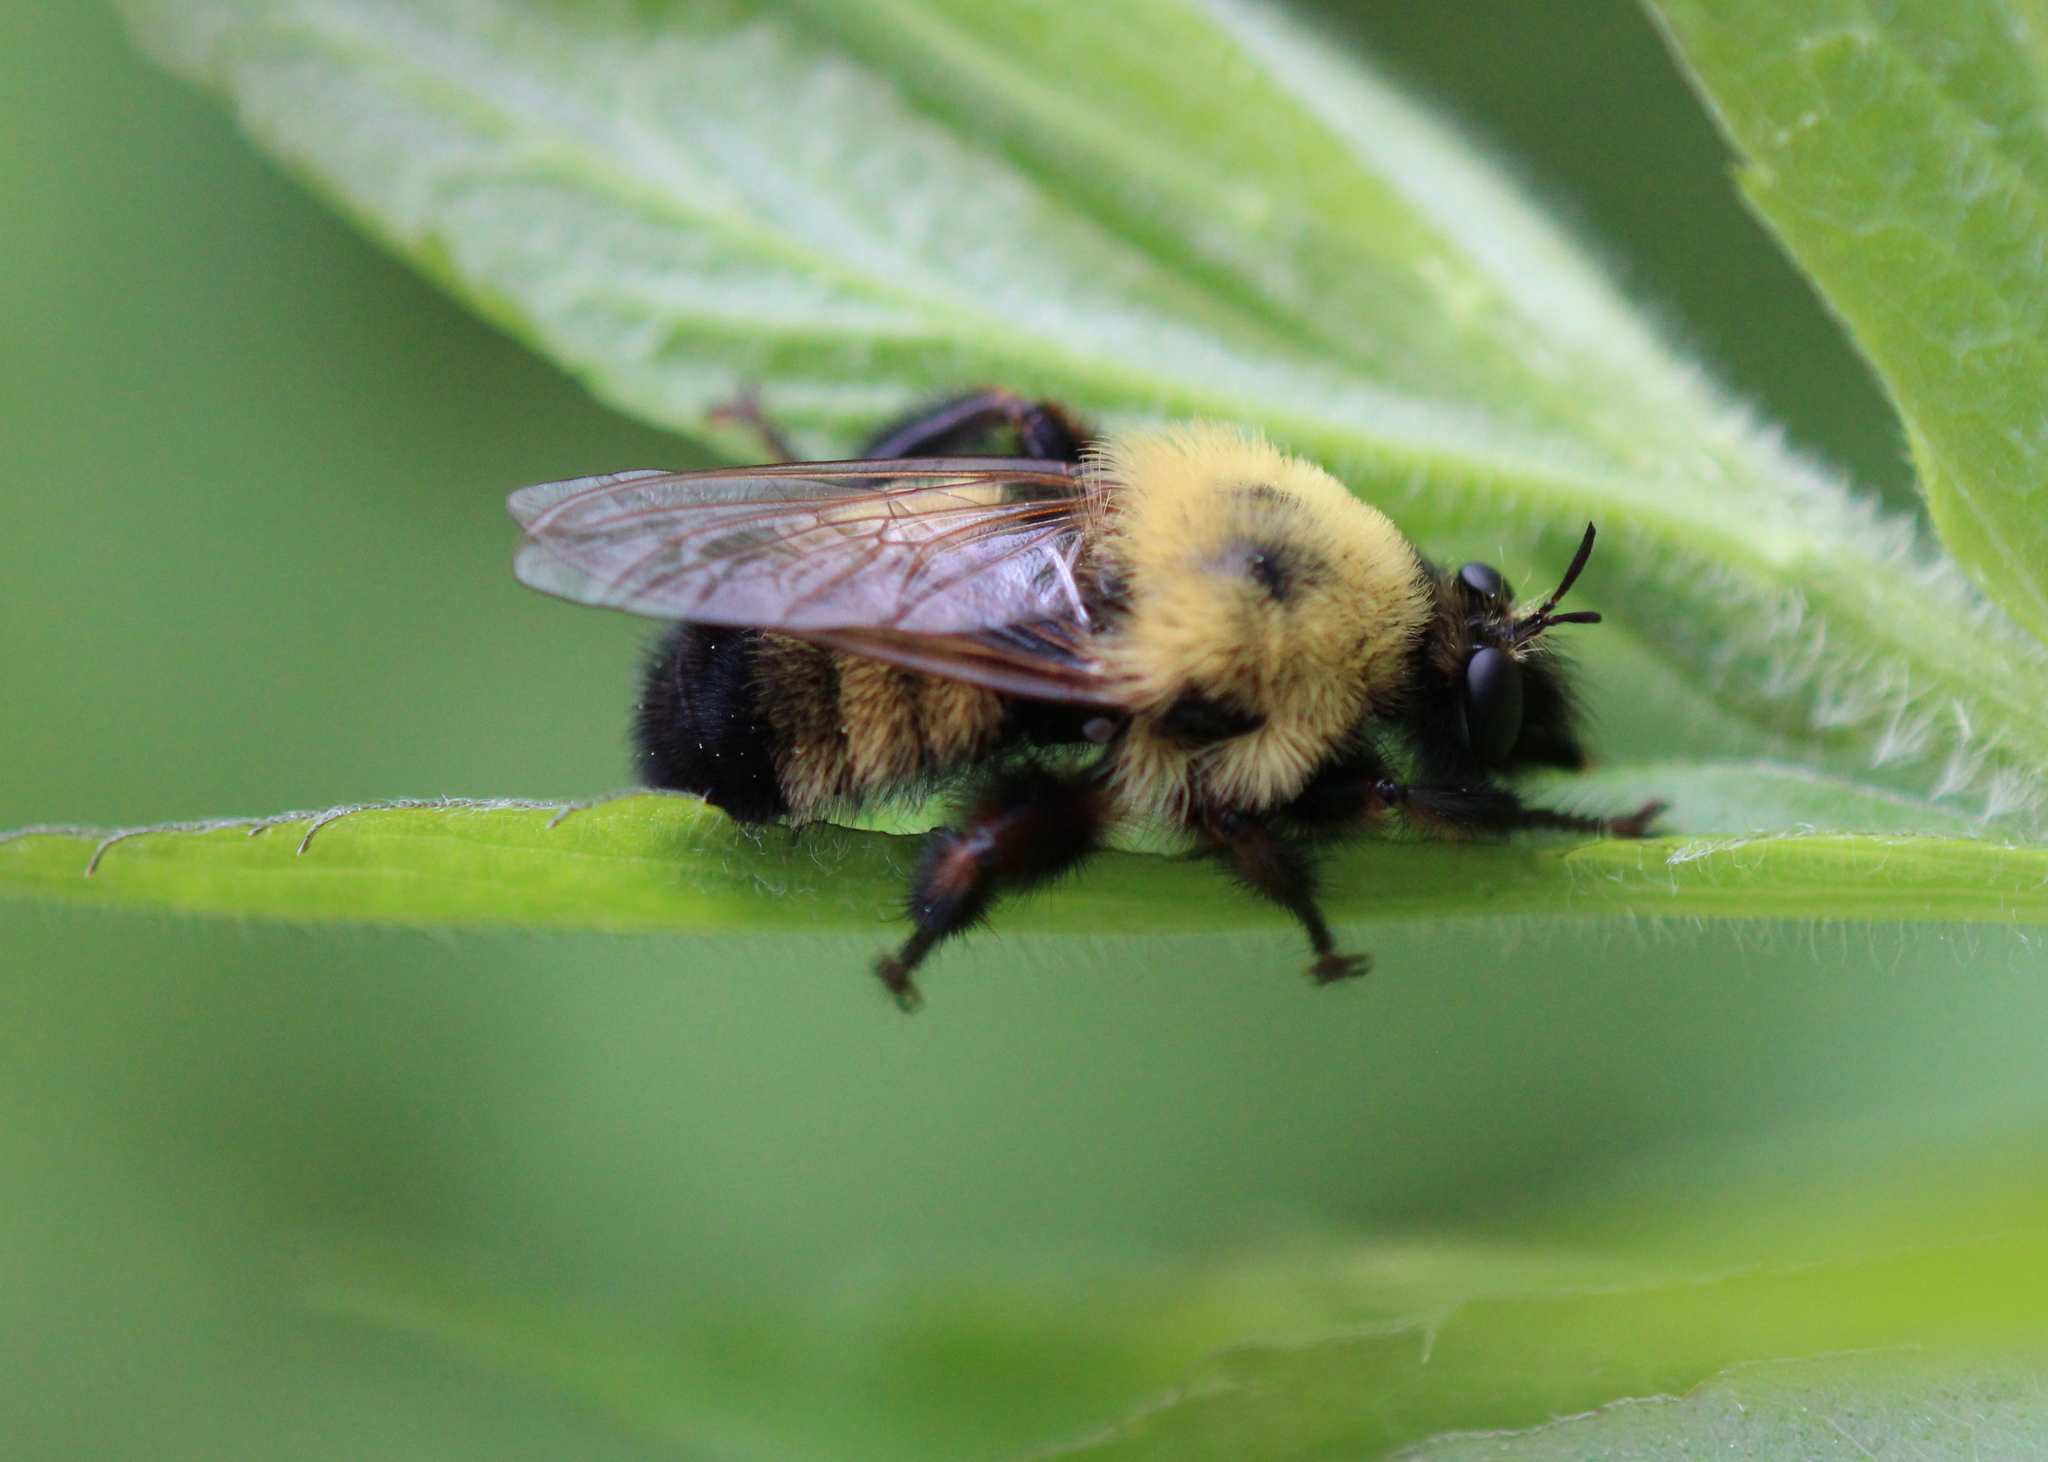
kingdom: Animalia
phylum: Arthropoda
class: Insecta
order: Diptera
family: Asilidae
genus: Laphria
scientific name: Laphria thoracica
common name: Bumble bee mimic robber fly
